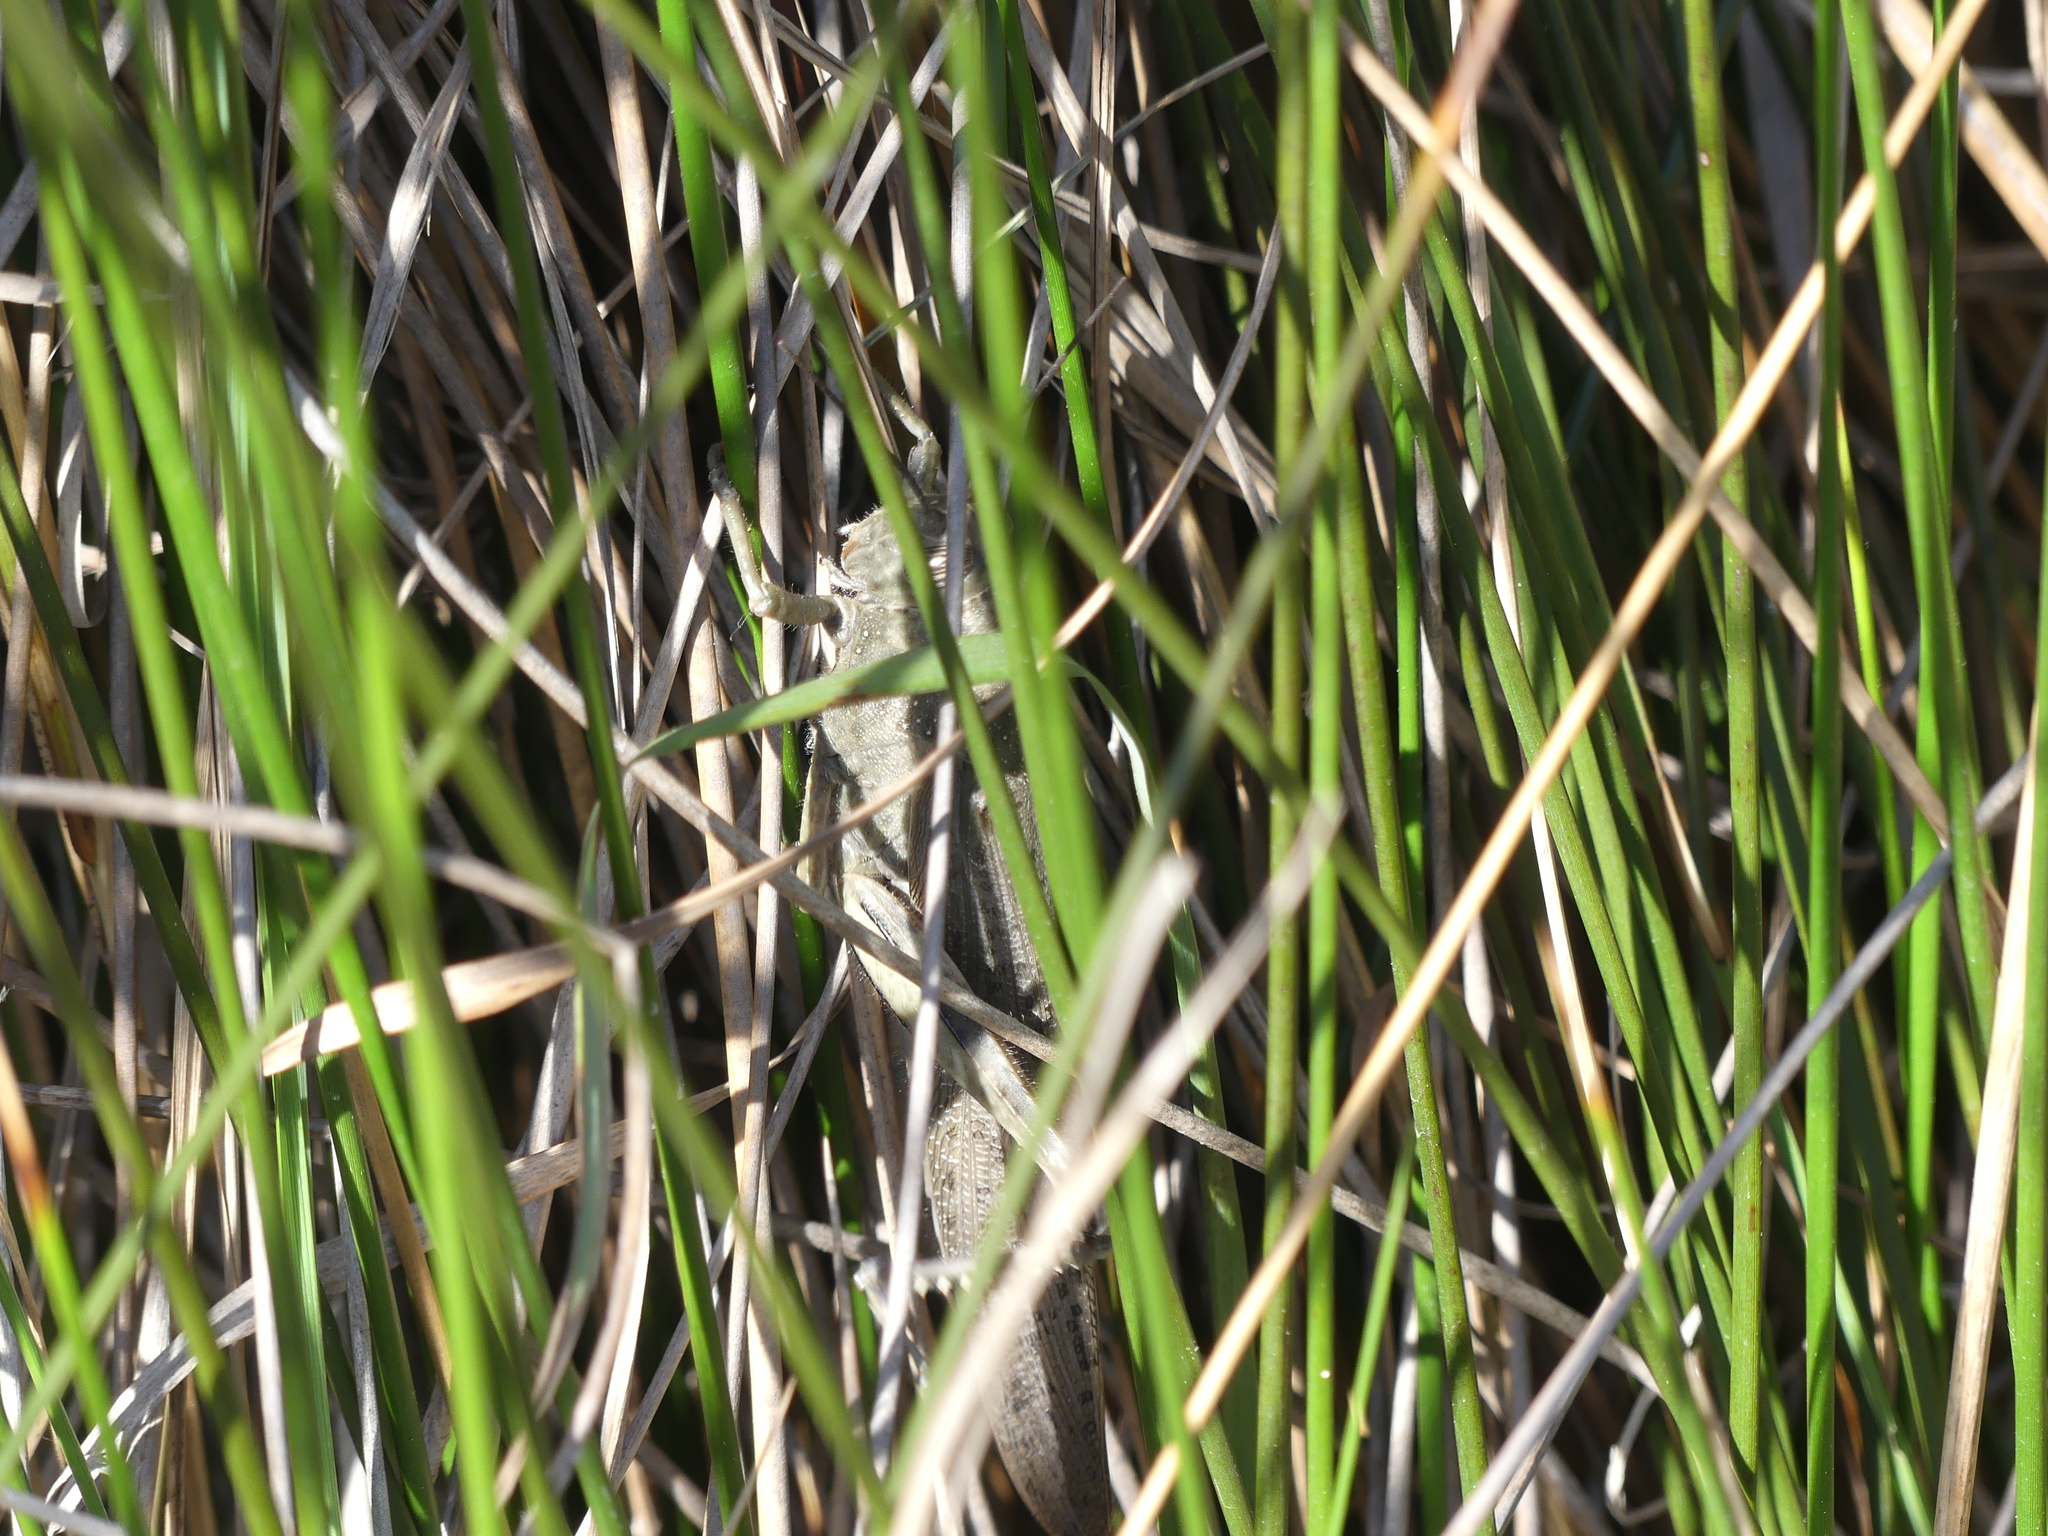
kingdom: Animalia
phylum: Arthropoda
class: Insecta
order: Orthoptera
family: Acrididae
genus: Anacridium
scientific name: Anacridium aegyptium
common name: Egyptian grasshopper
